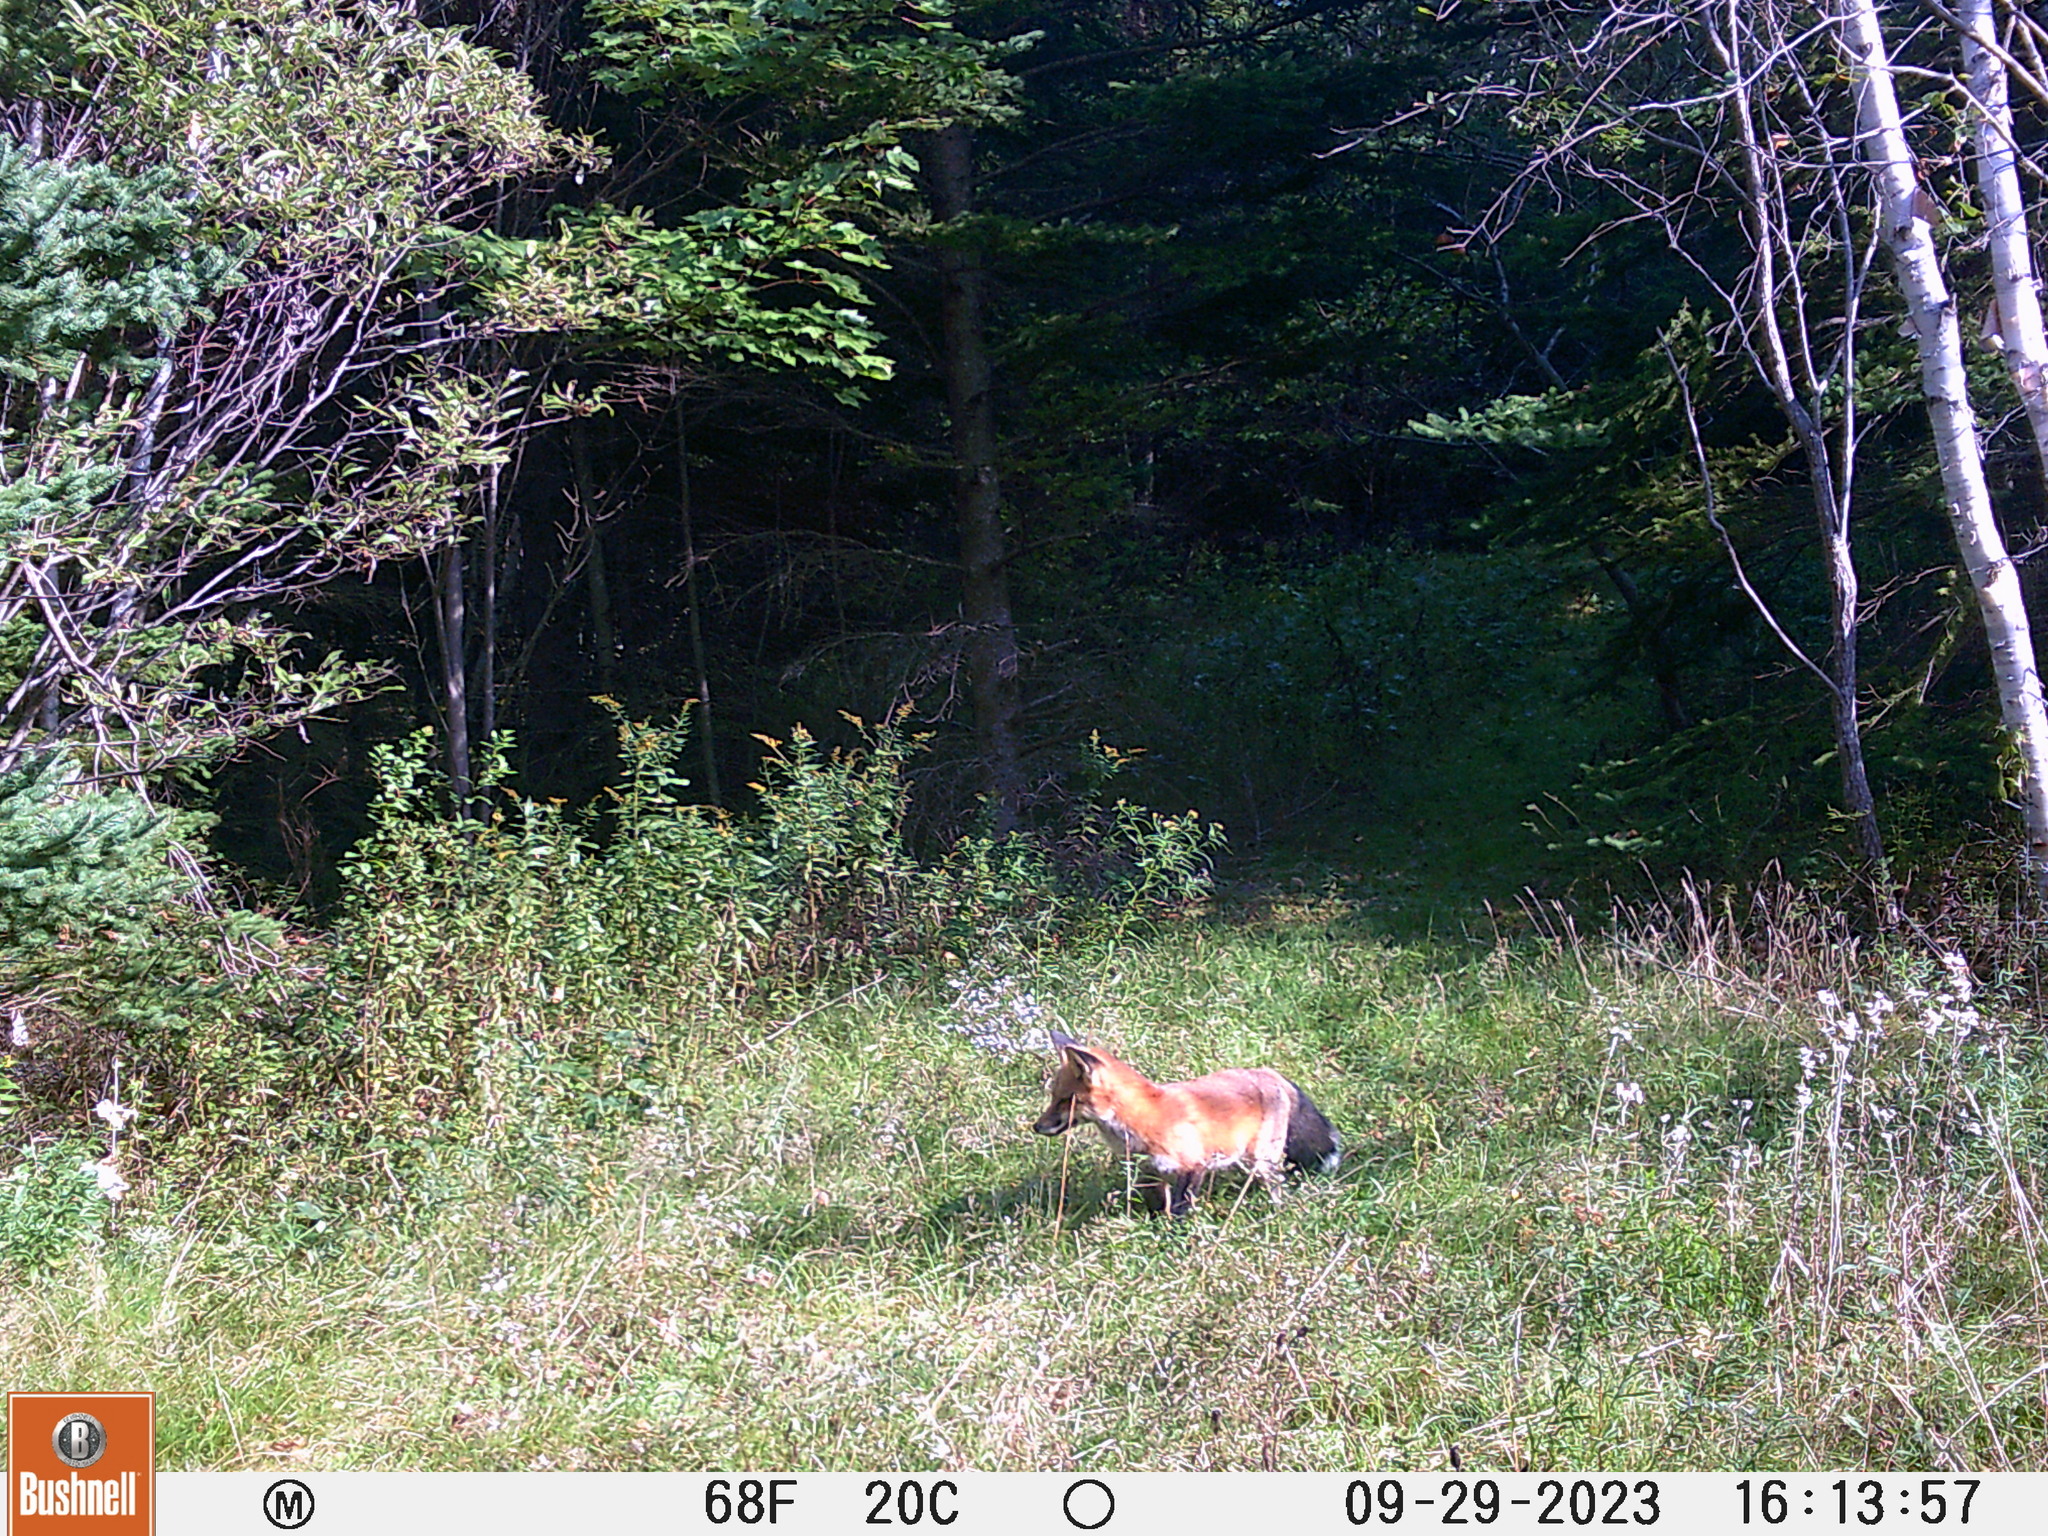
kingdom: Animalia
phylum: Chordata
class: Mammalia
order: Carnivora
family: Canidae
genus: Vulpes
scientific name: Vulpes vulpes
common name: Red fox
